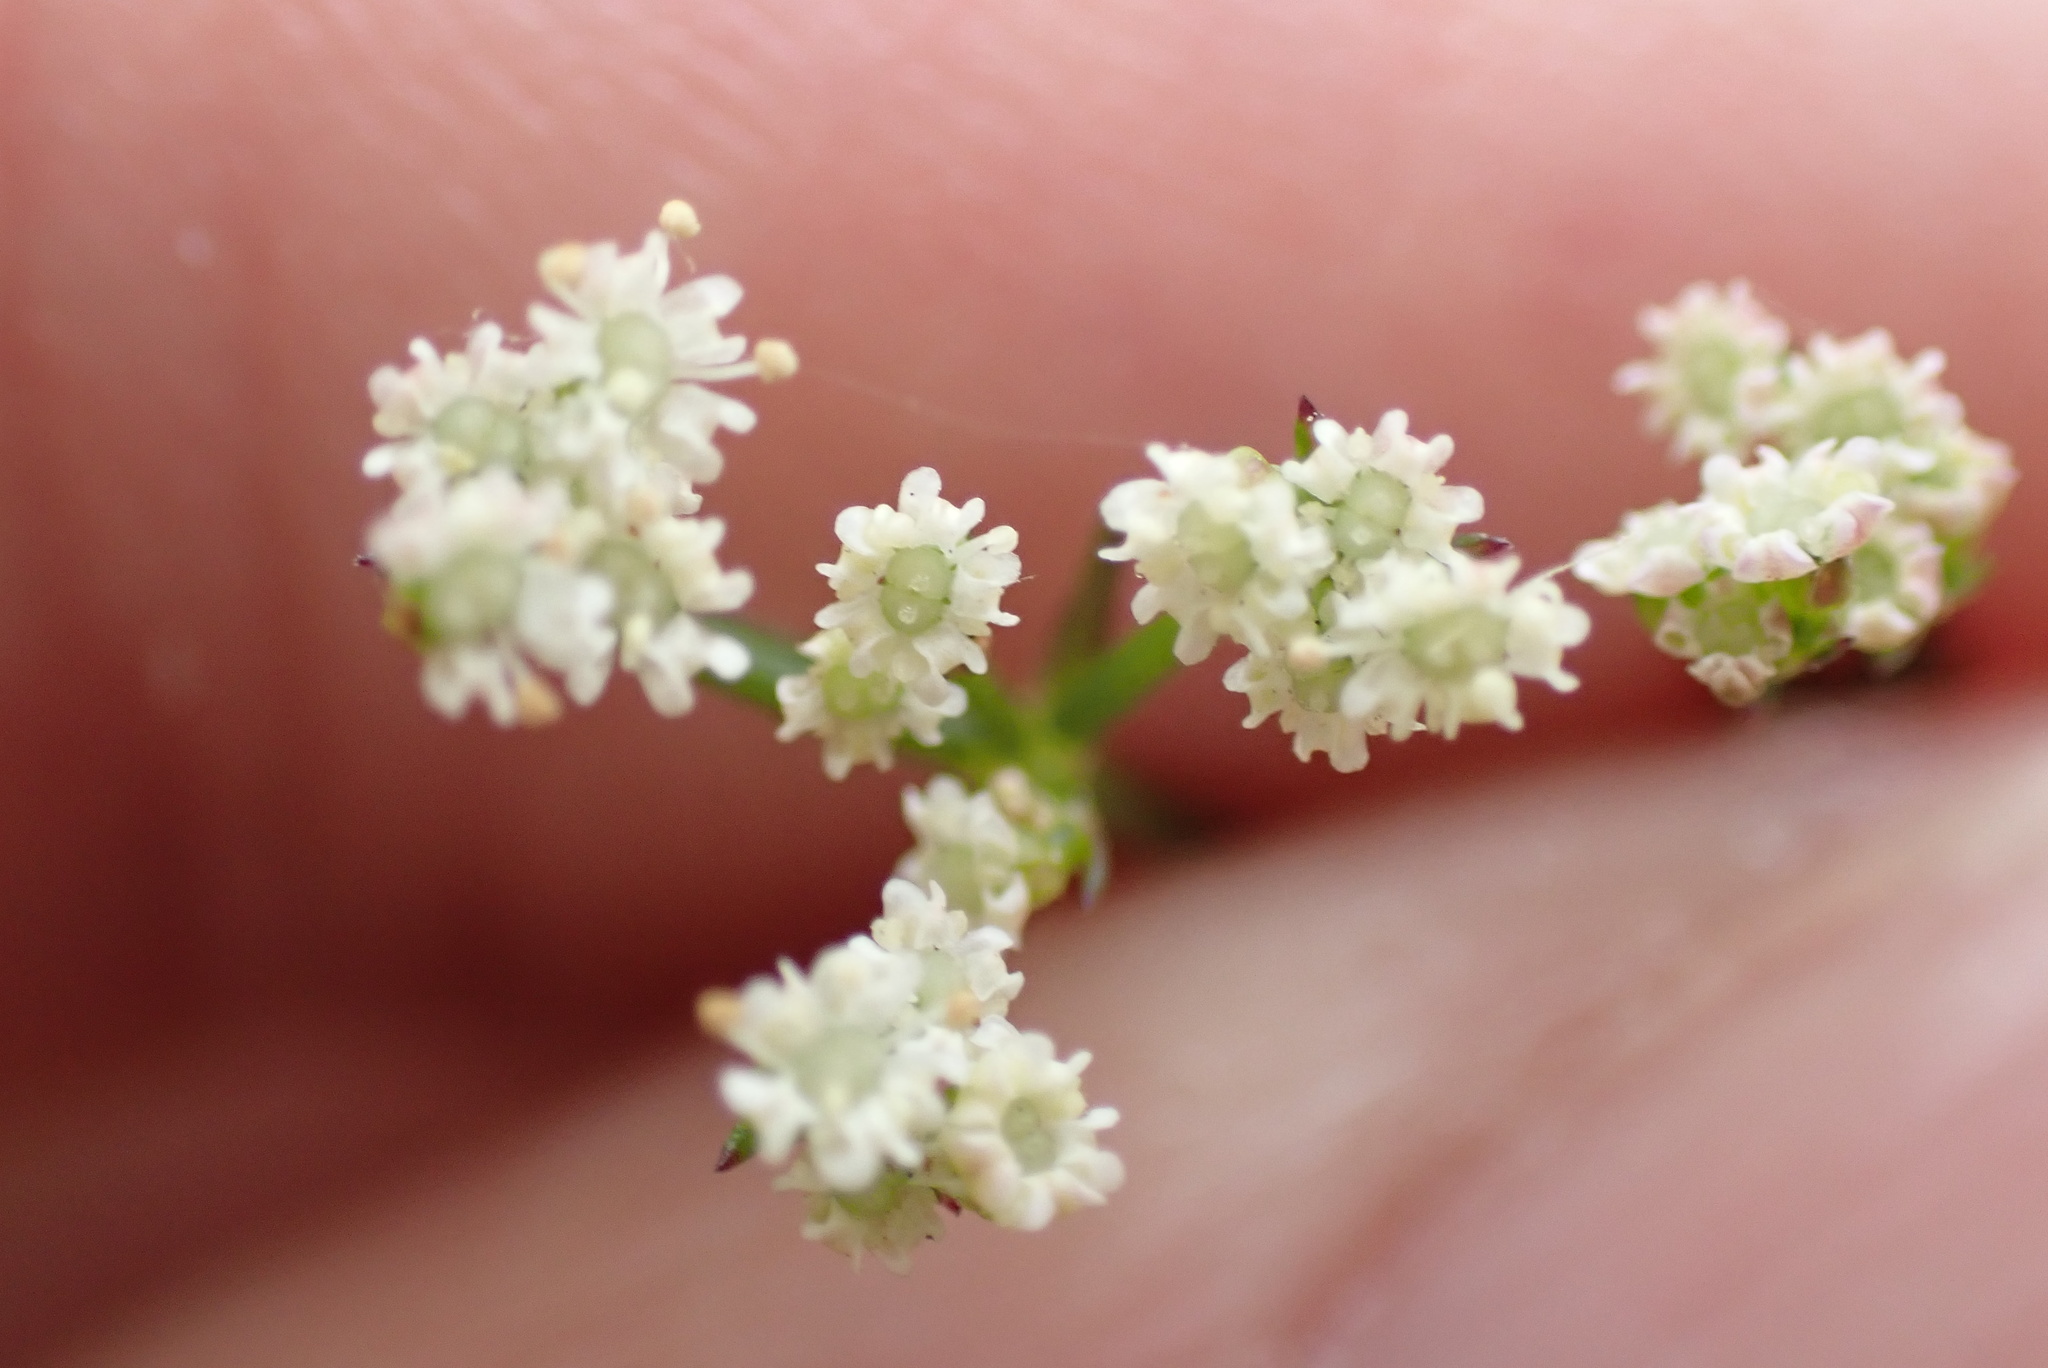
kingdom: Plantae
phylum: Tracheophyta
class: Magnoliopsida
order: Apiales
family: Apiaceae
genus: Sison
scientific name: Sison amomum
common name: Stone-parsley
